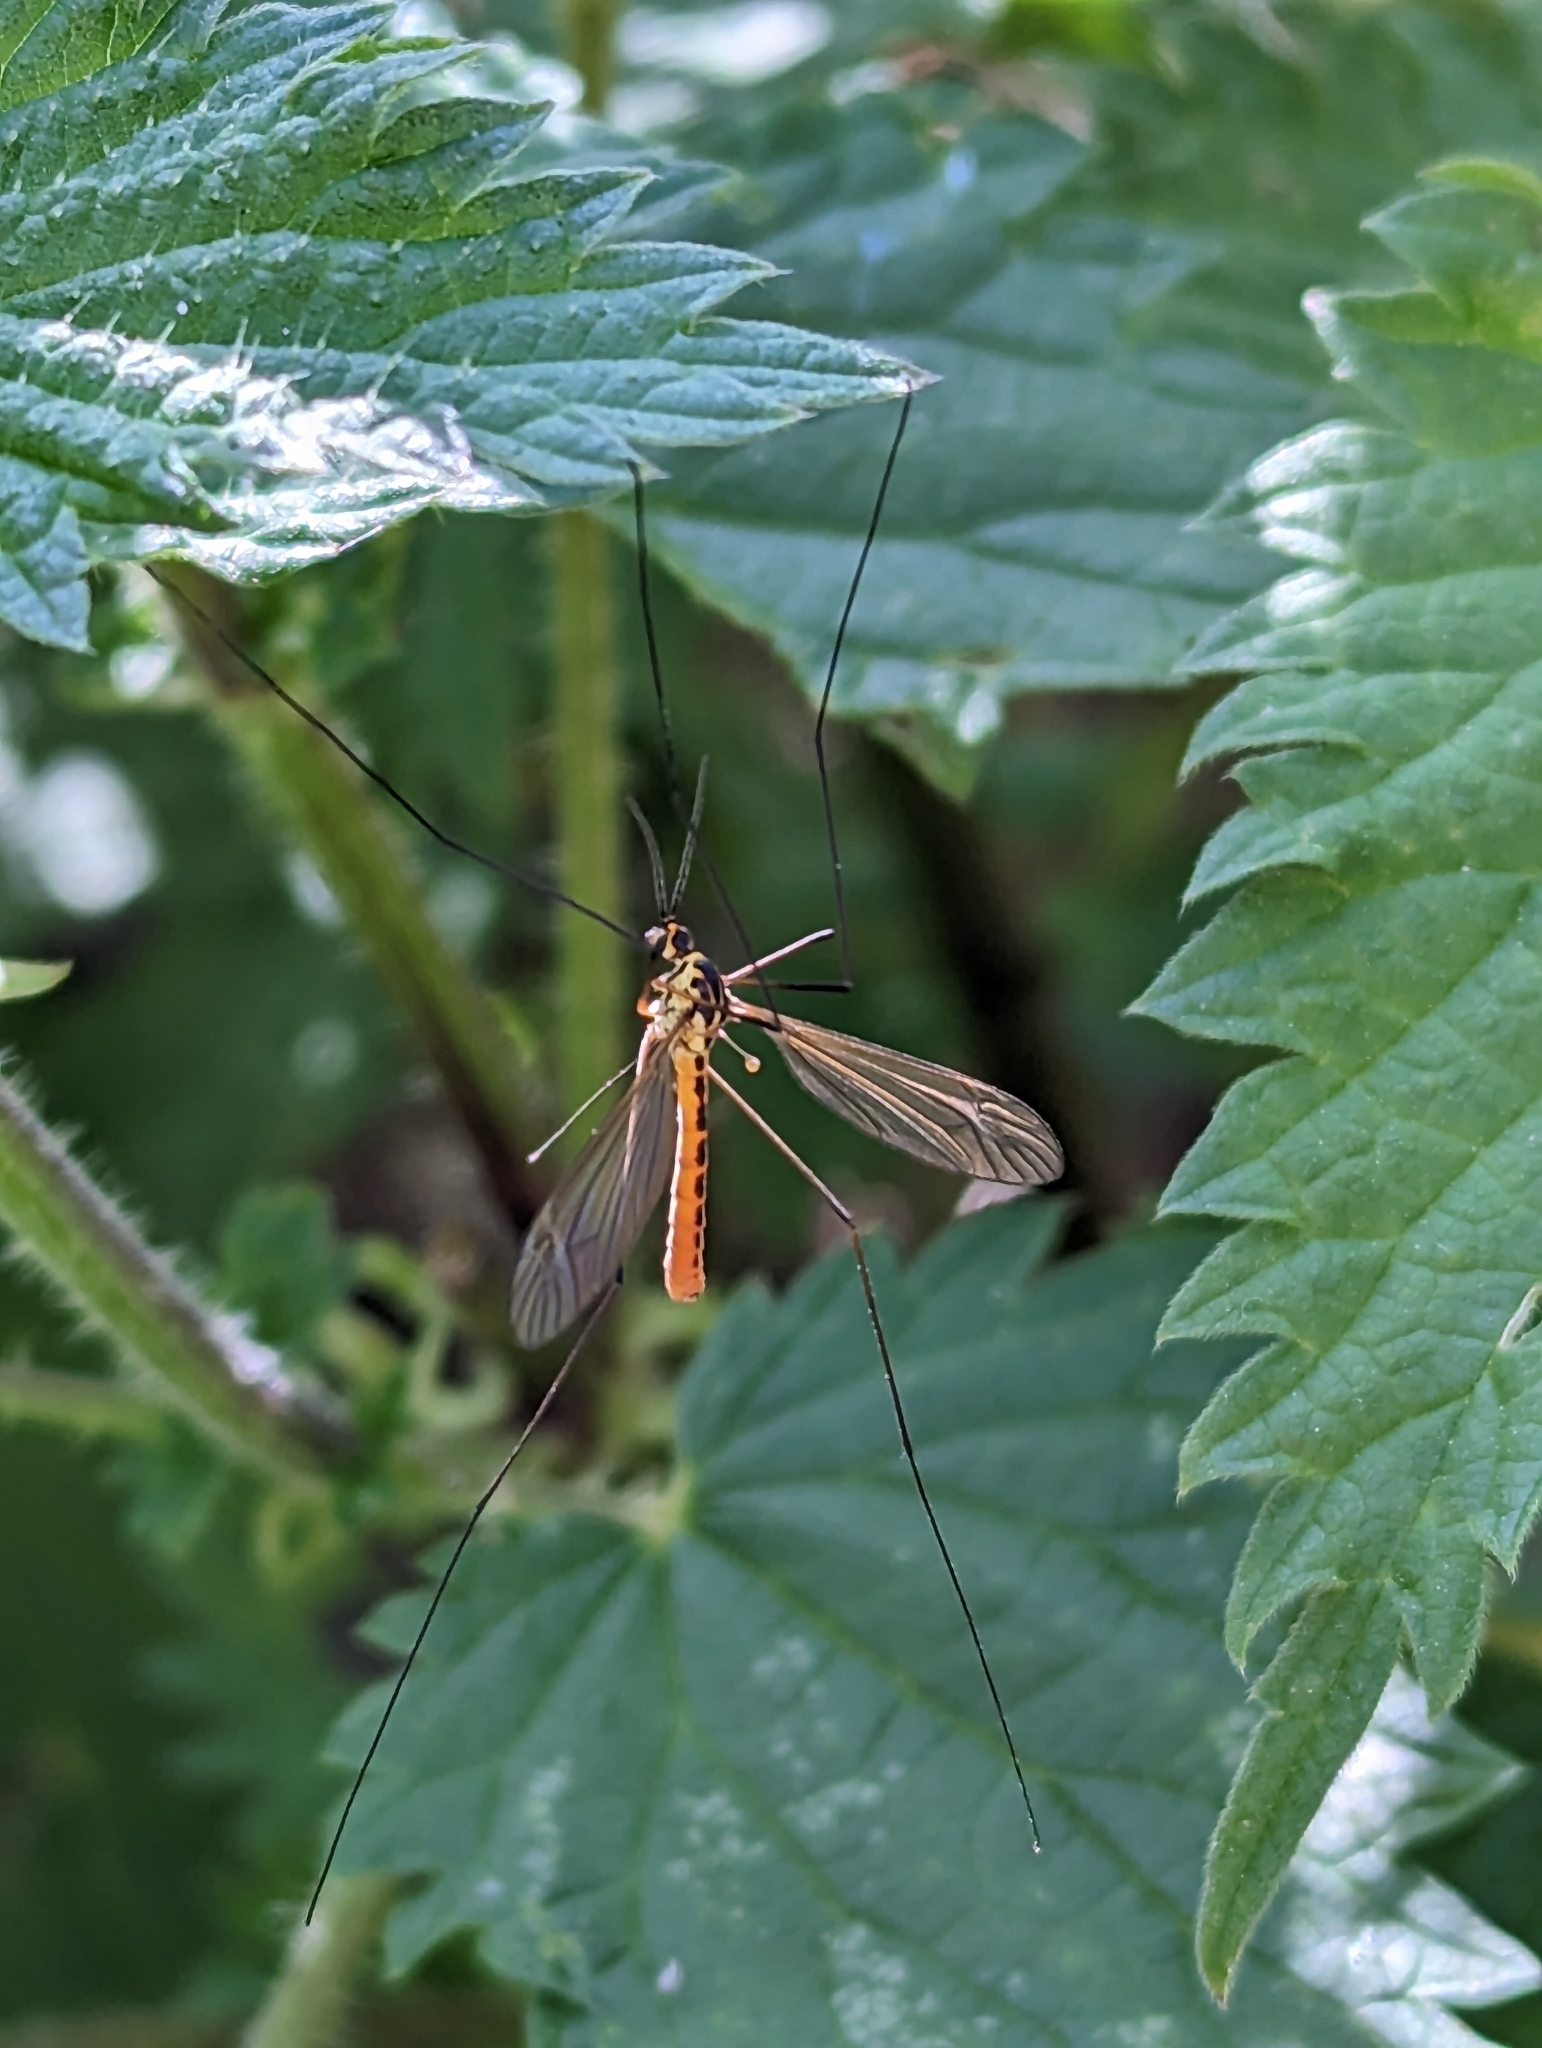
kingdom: Animalia
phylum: Arthropoda
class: Insecta
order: Diptera
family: Tipulidae
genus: Nephrotoma
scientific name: Nephrotoma flavescens
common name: Tiger cranefly
